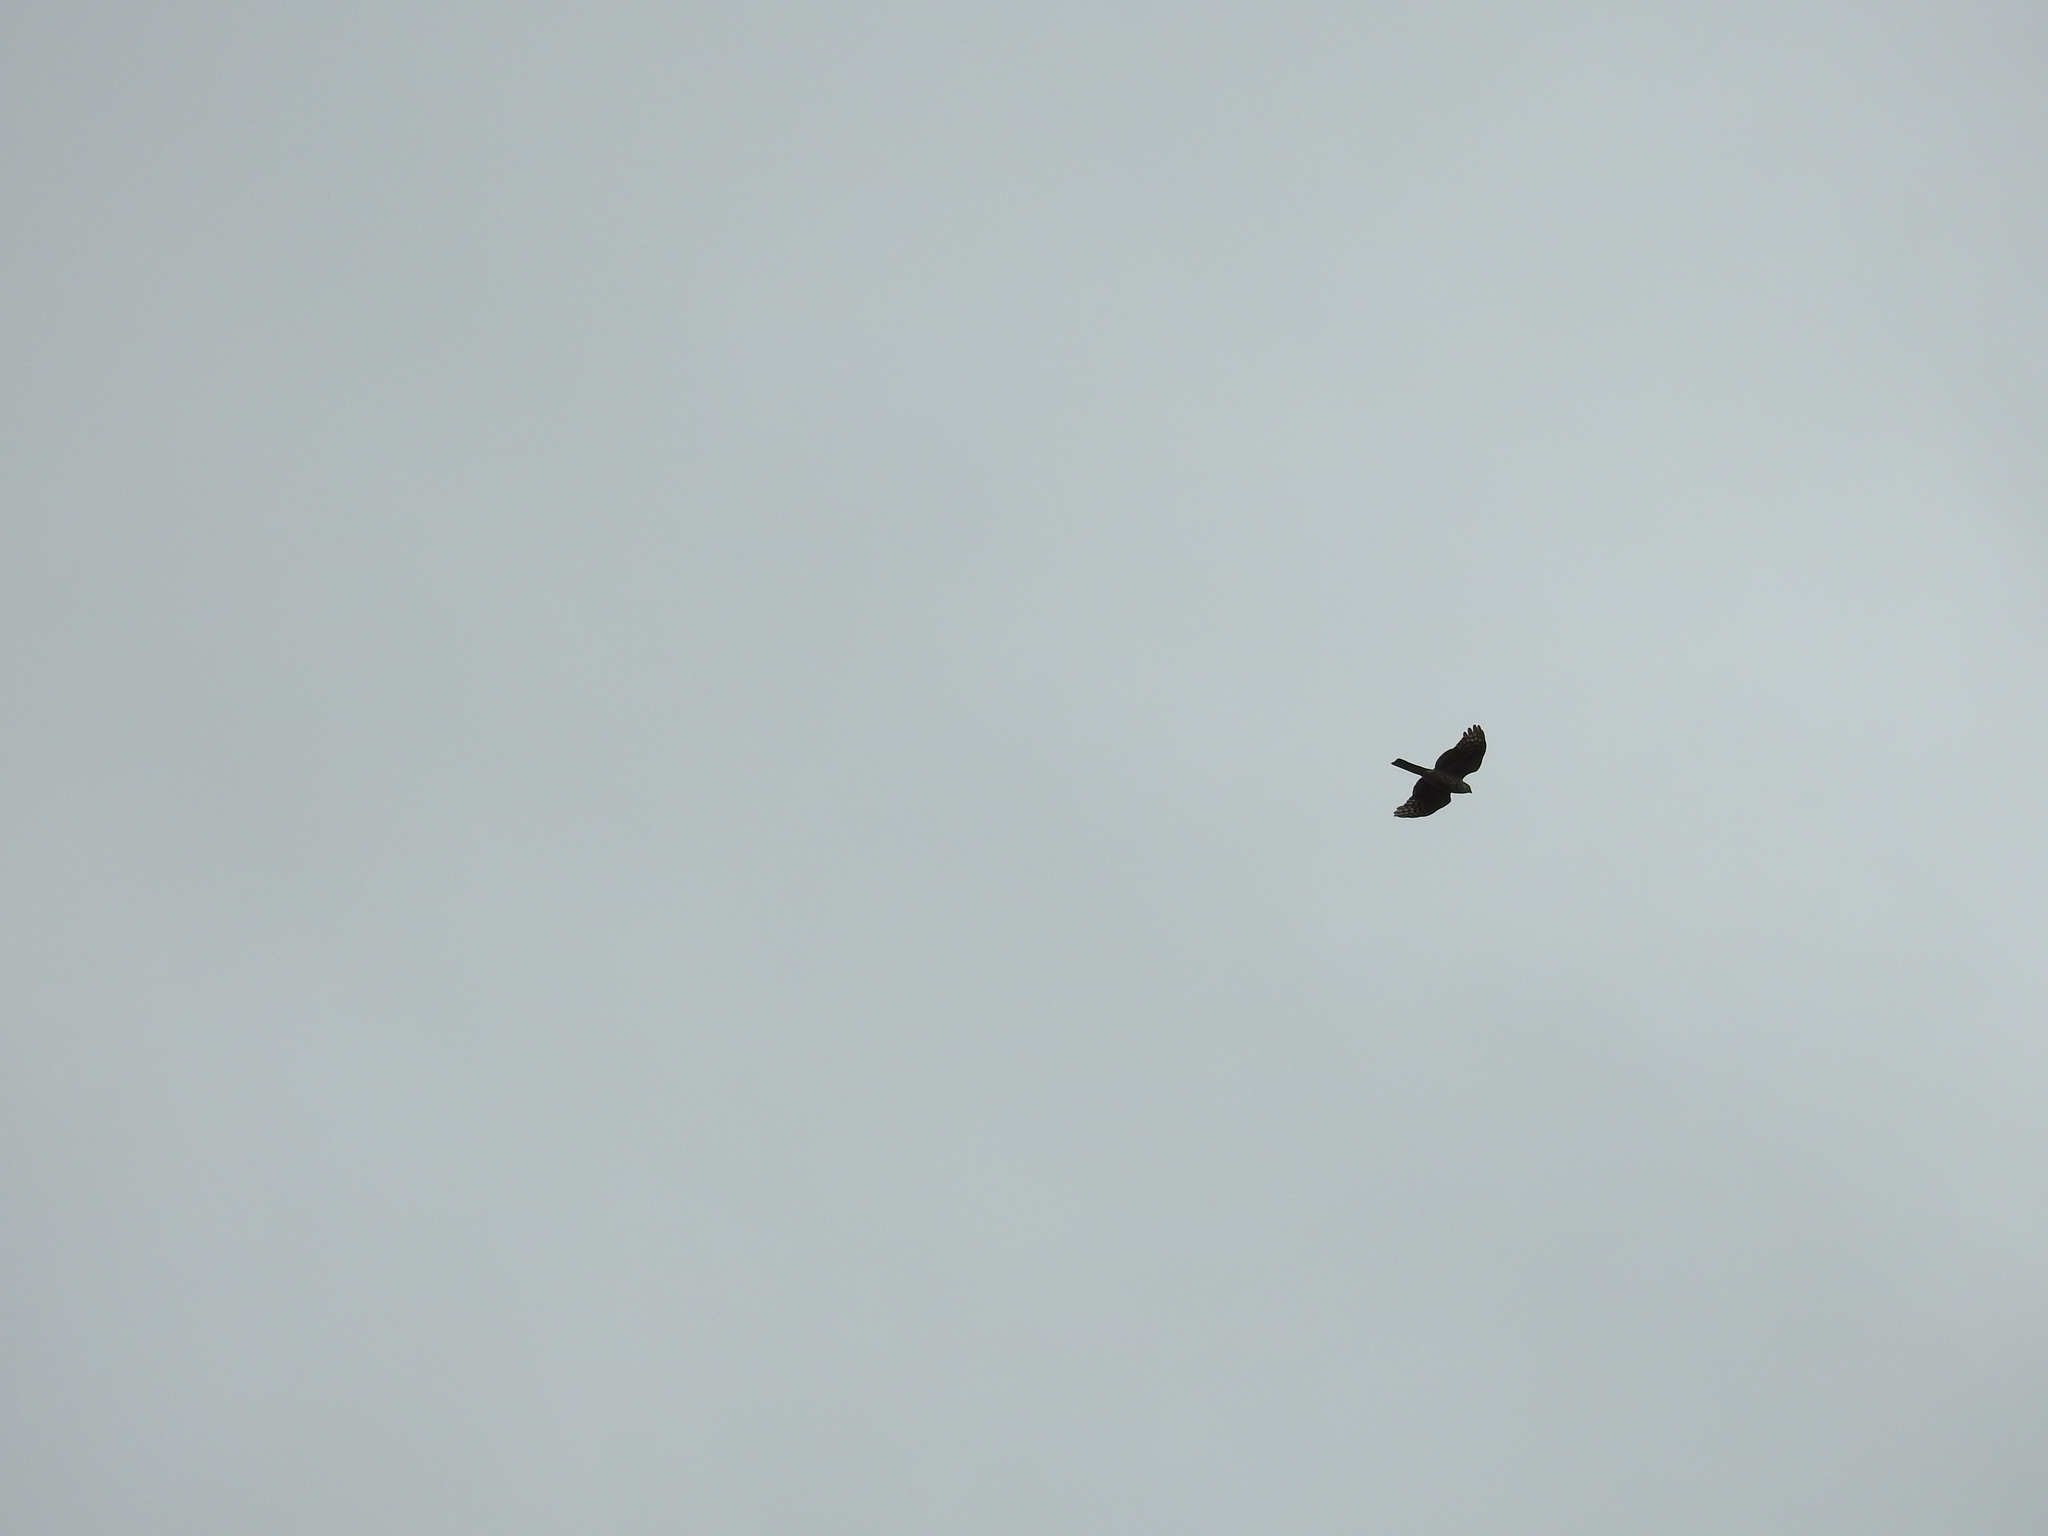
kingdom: Animalia
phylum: Chordata
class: Aves
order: Accipitriformes
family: Accipitridae
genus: Accipiter
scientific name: Accipiter cooperii
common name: Cooper's hawk
